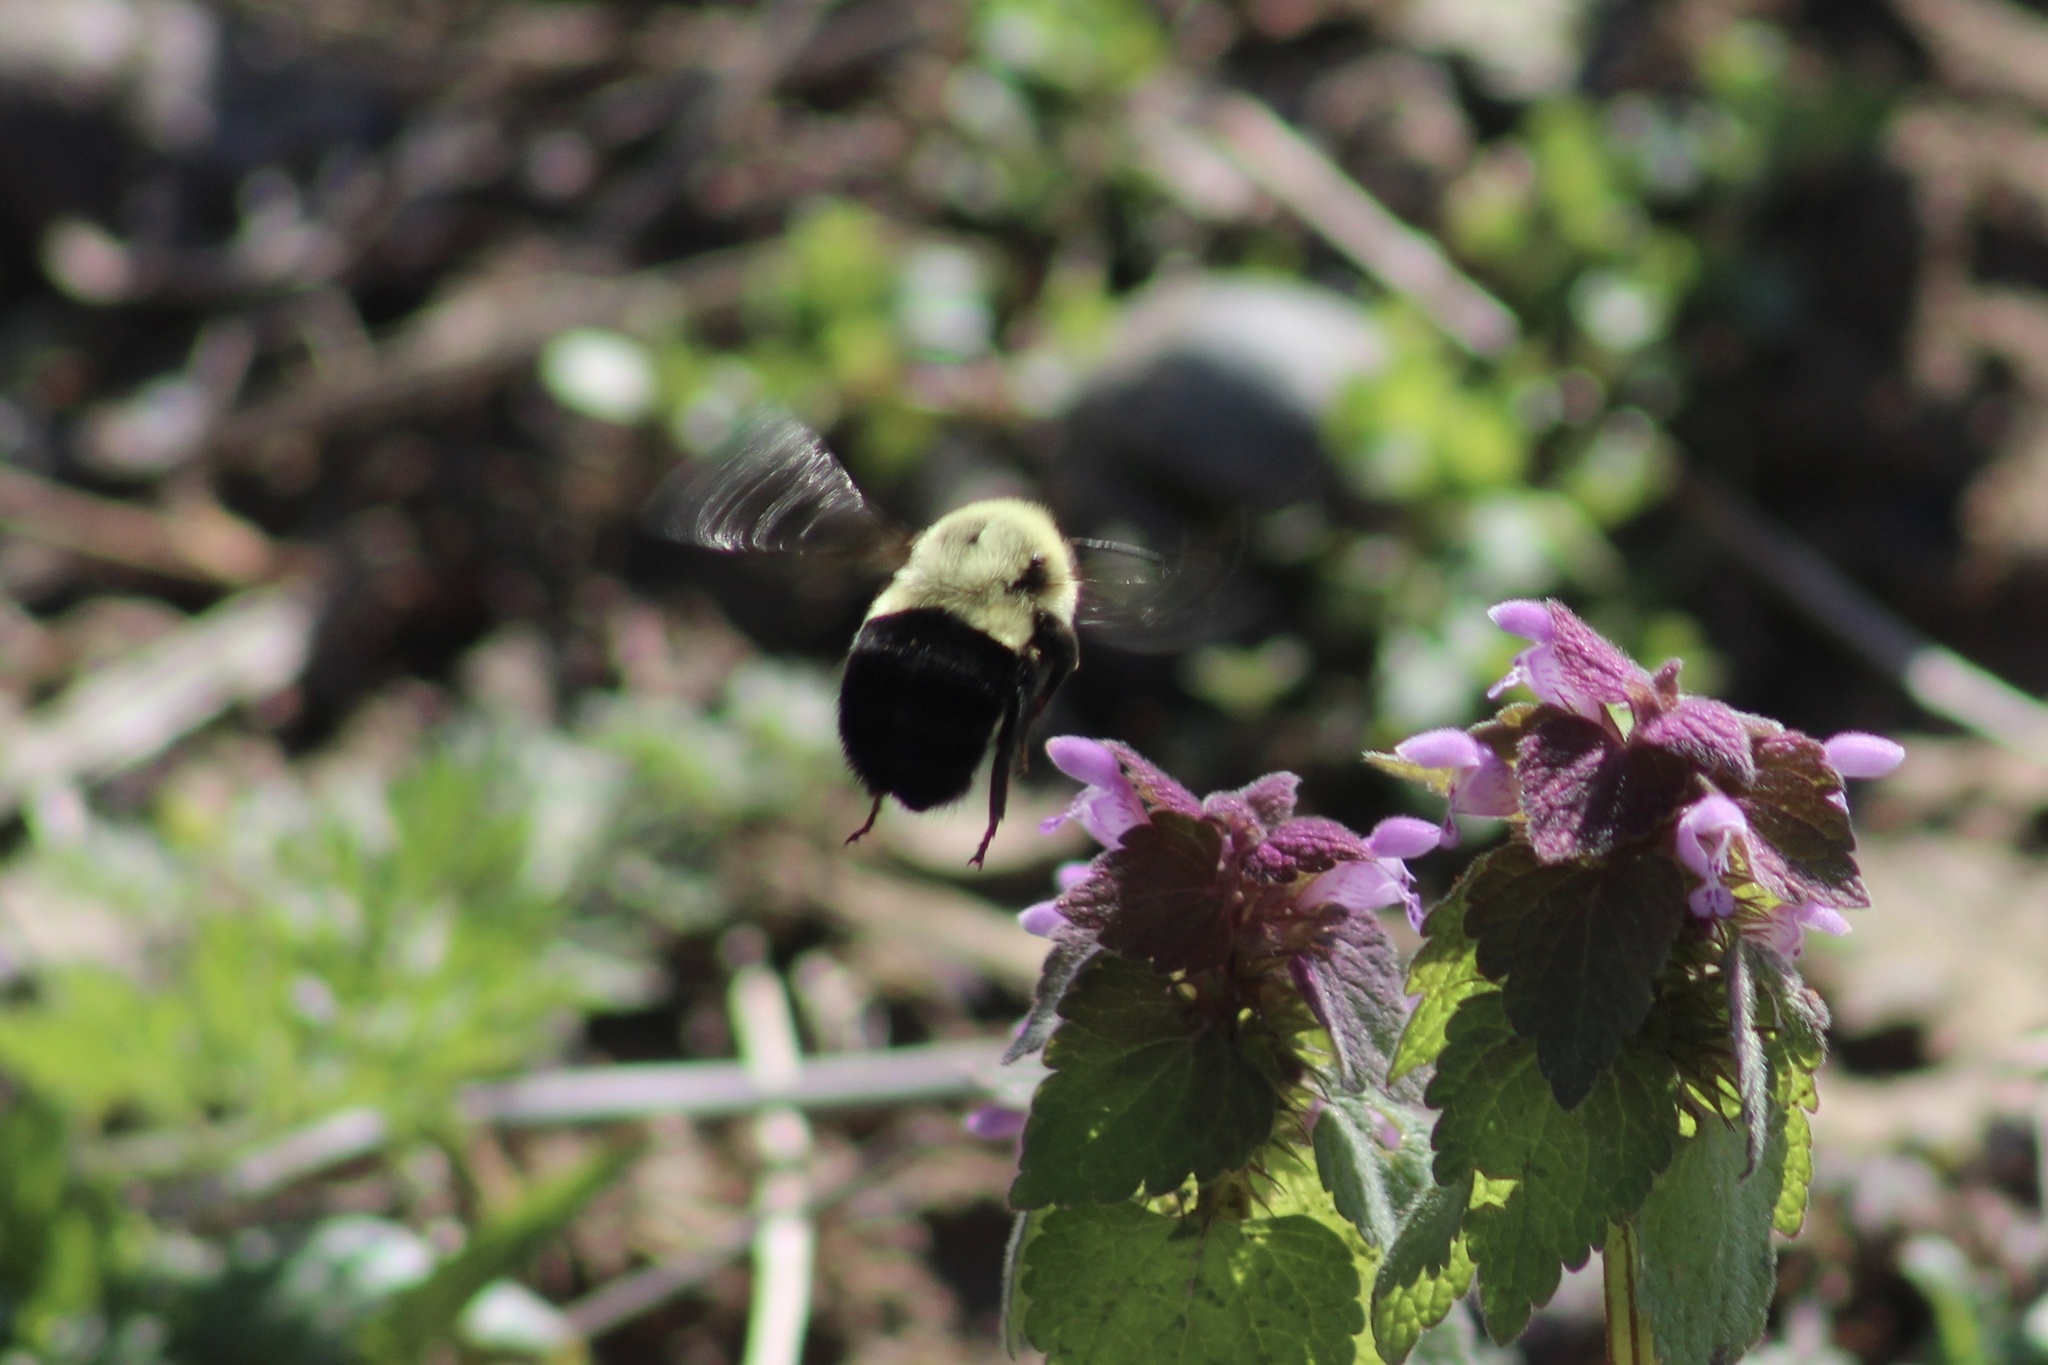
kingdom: Animalia
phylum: Arthropoda
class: Insecta
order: Hymenoptera
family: Apidae
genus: Bombus
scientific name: Bombus impatiens
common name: Common eastern bumble bee
